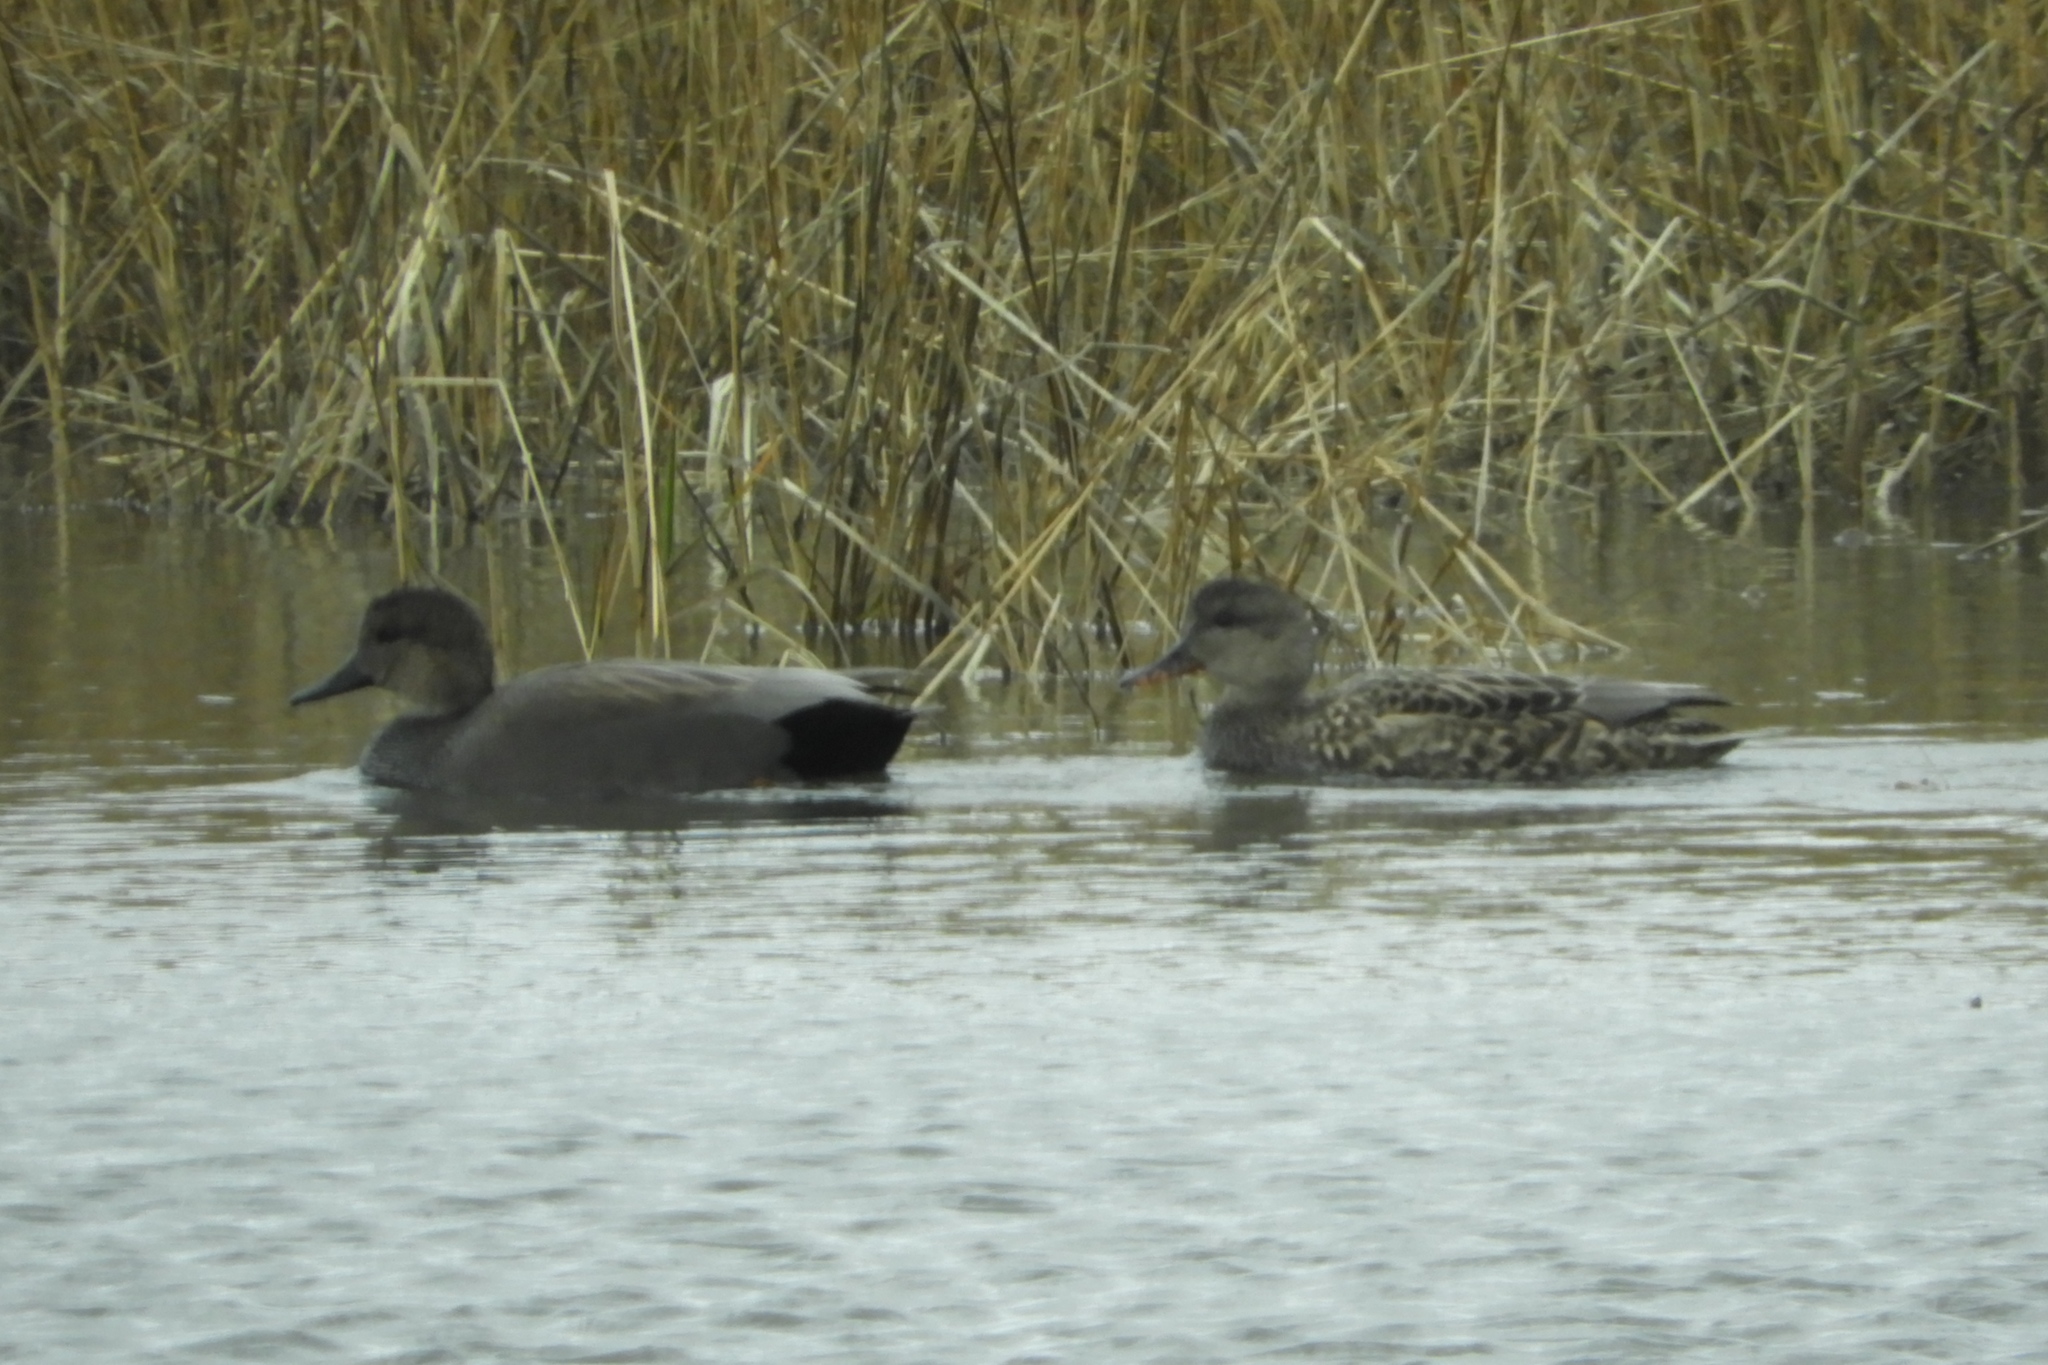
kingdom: Animalia
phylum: Chordata
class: Aves
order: Anseriformes
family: Anatidae
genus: Mareca
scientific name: Mareca strepera
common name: Gadwall
